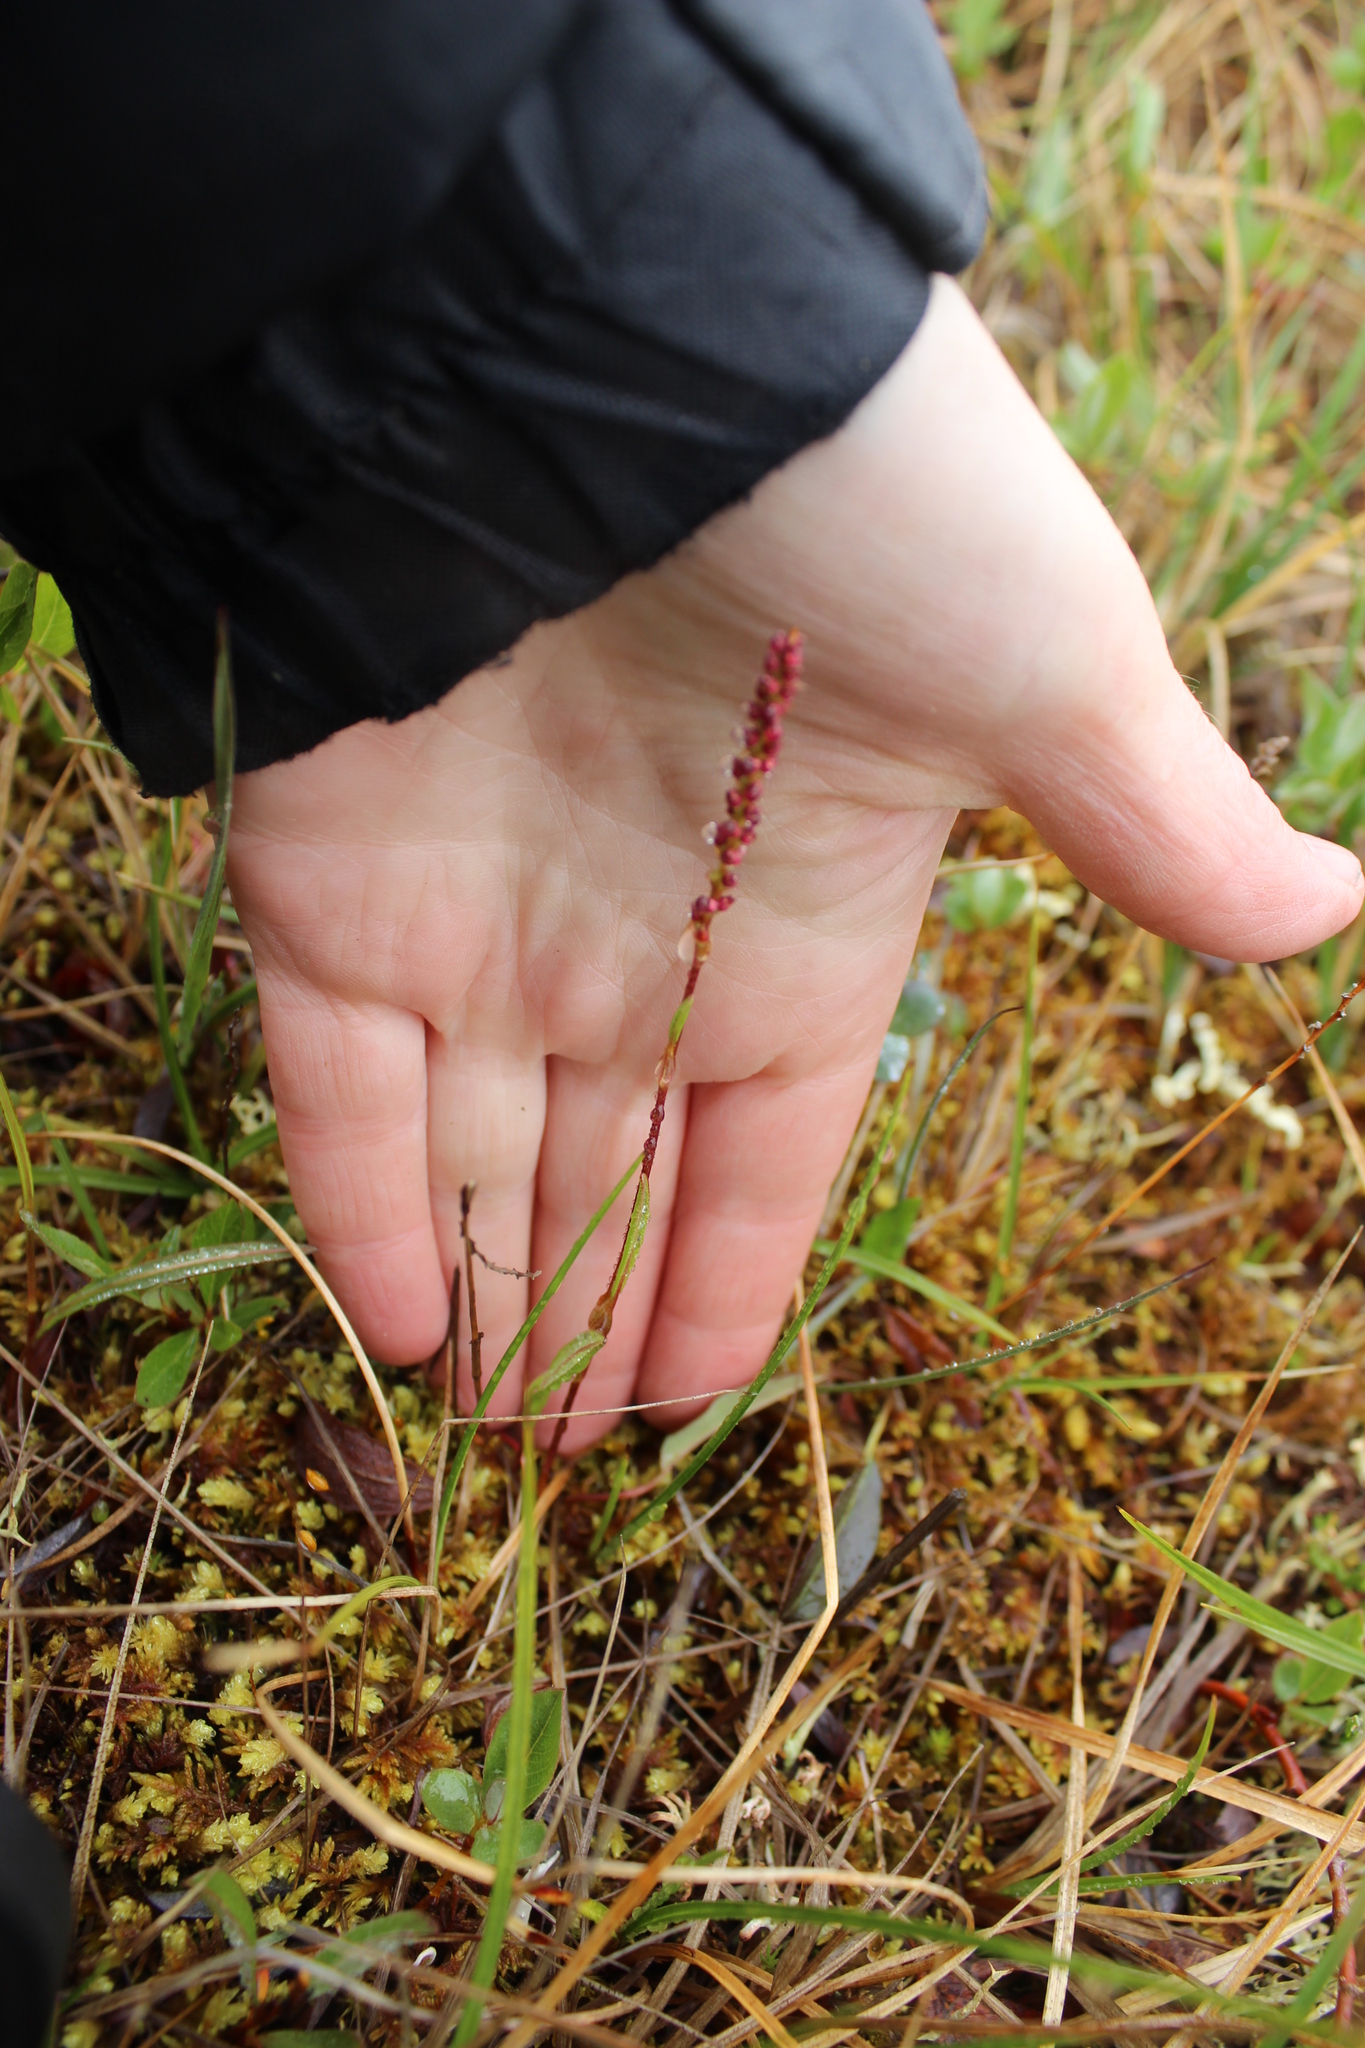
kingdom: Plantae
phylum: Tracheophyta
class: Magnoliopsida
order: Caryophyllales
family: Polygonaceae
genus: Bistorta
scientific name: Bistorta vivipara
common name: Alpine bistort
